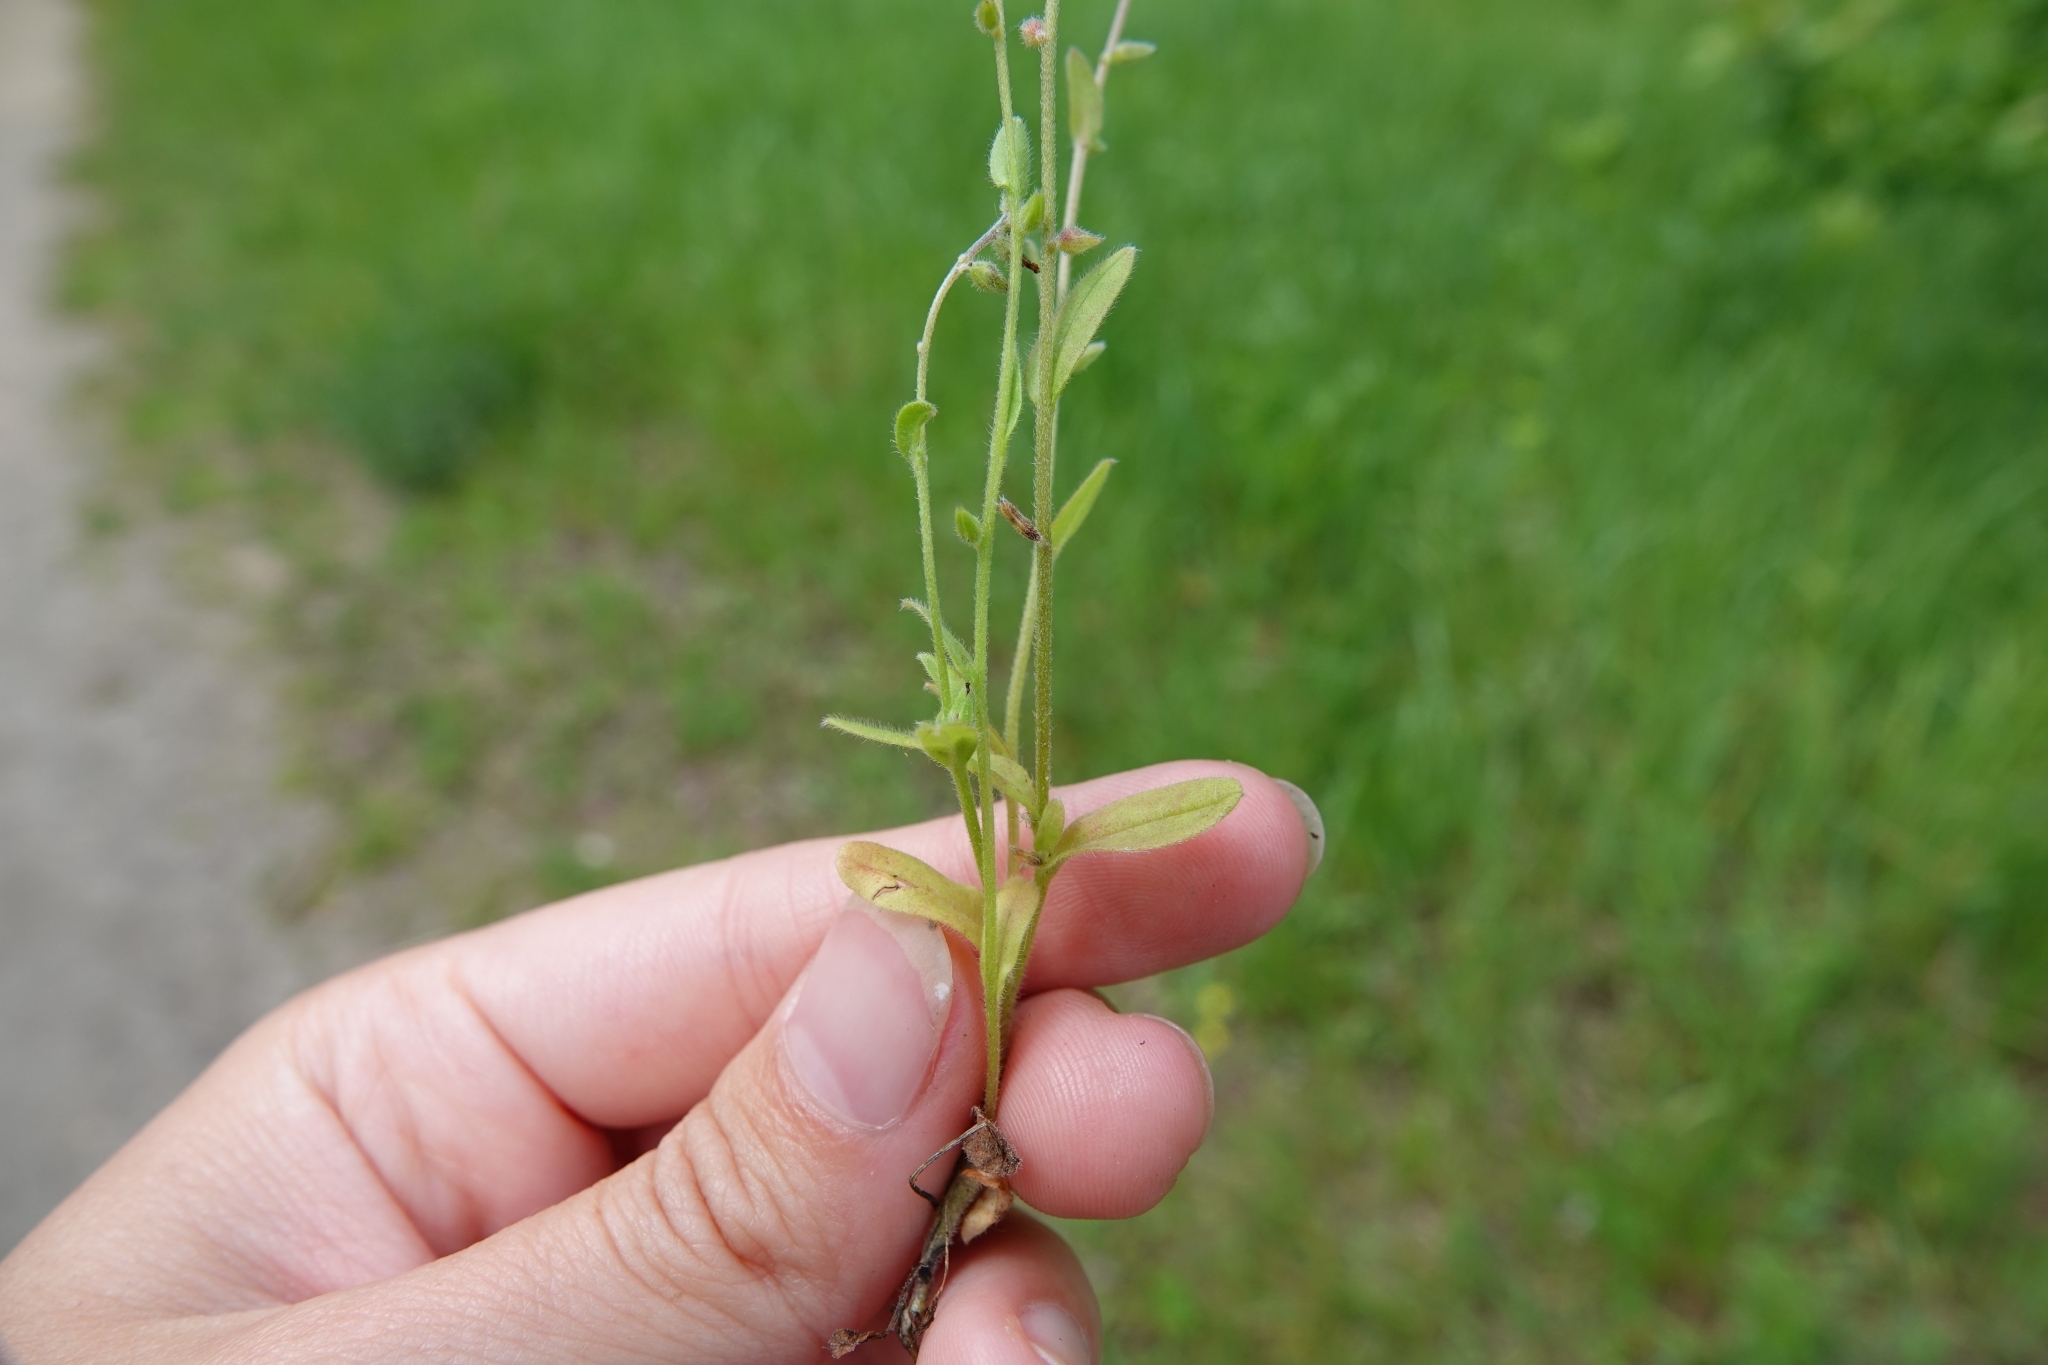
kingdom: Plantae
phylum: Tracheophyta
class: Magnoliopsida
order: Boraginales
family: Boraginaceae
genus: Myosotis
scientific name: Myosotis stricta
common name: Strict forget-me-not
